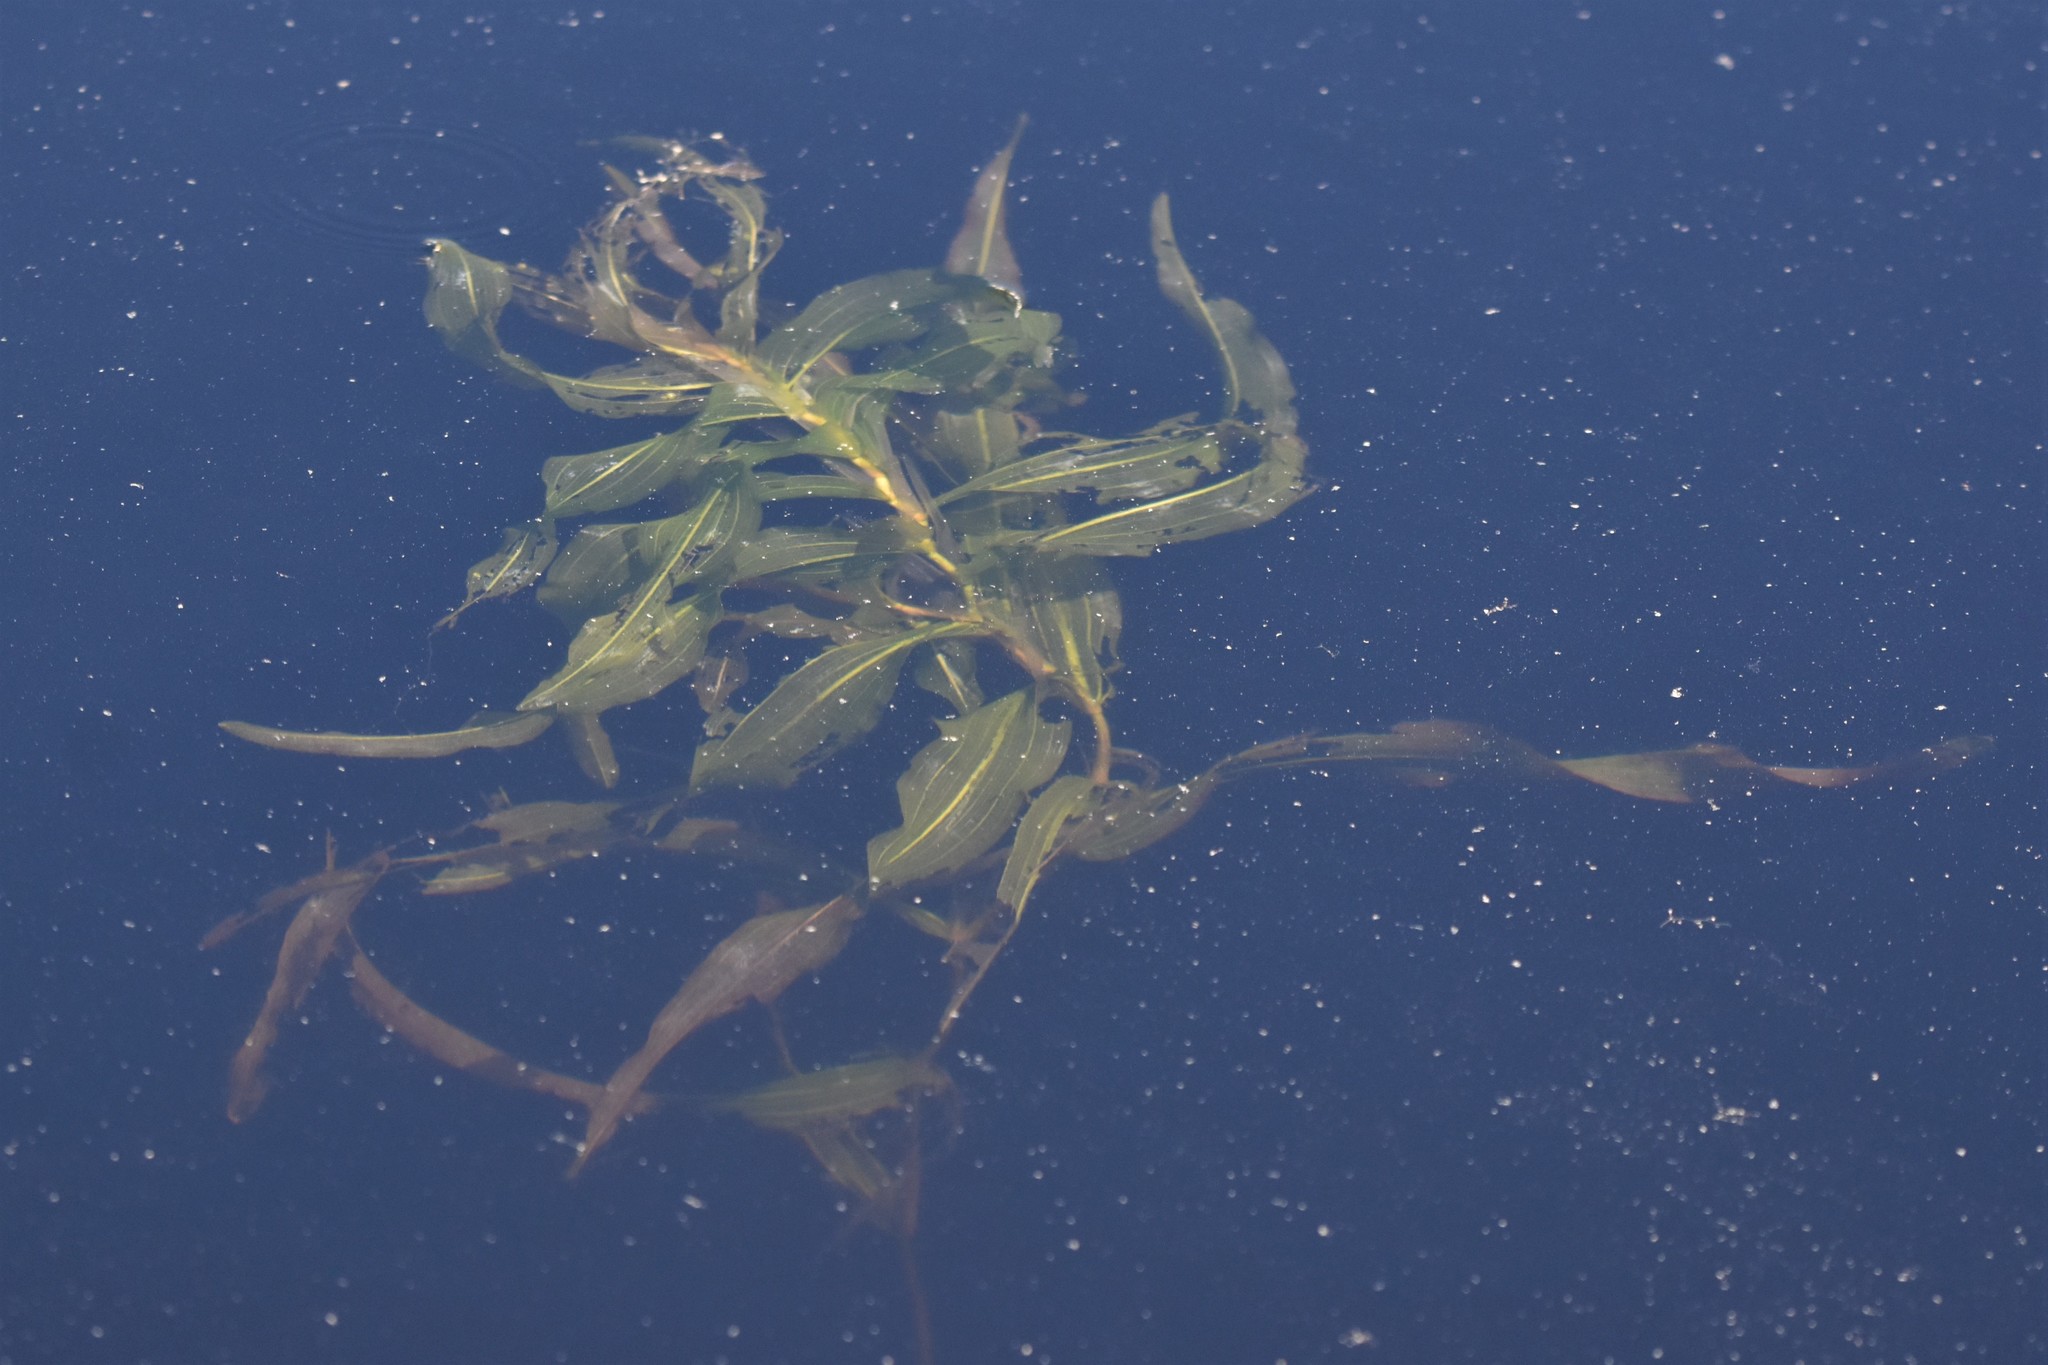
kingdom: Plantae
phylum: Tracheophyta
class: Liliopsida
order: Alismatales
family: Potamogetonaceae
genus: Potamogeton
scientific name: Potamogeton richardsonii
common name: Richardson's pondweed
